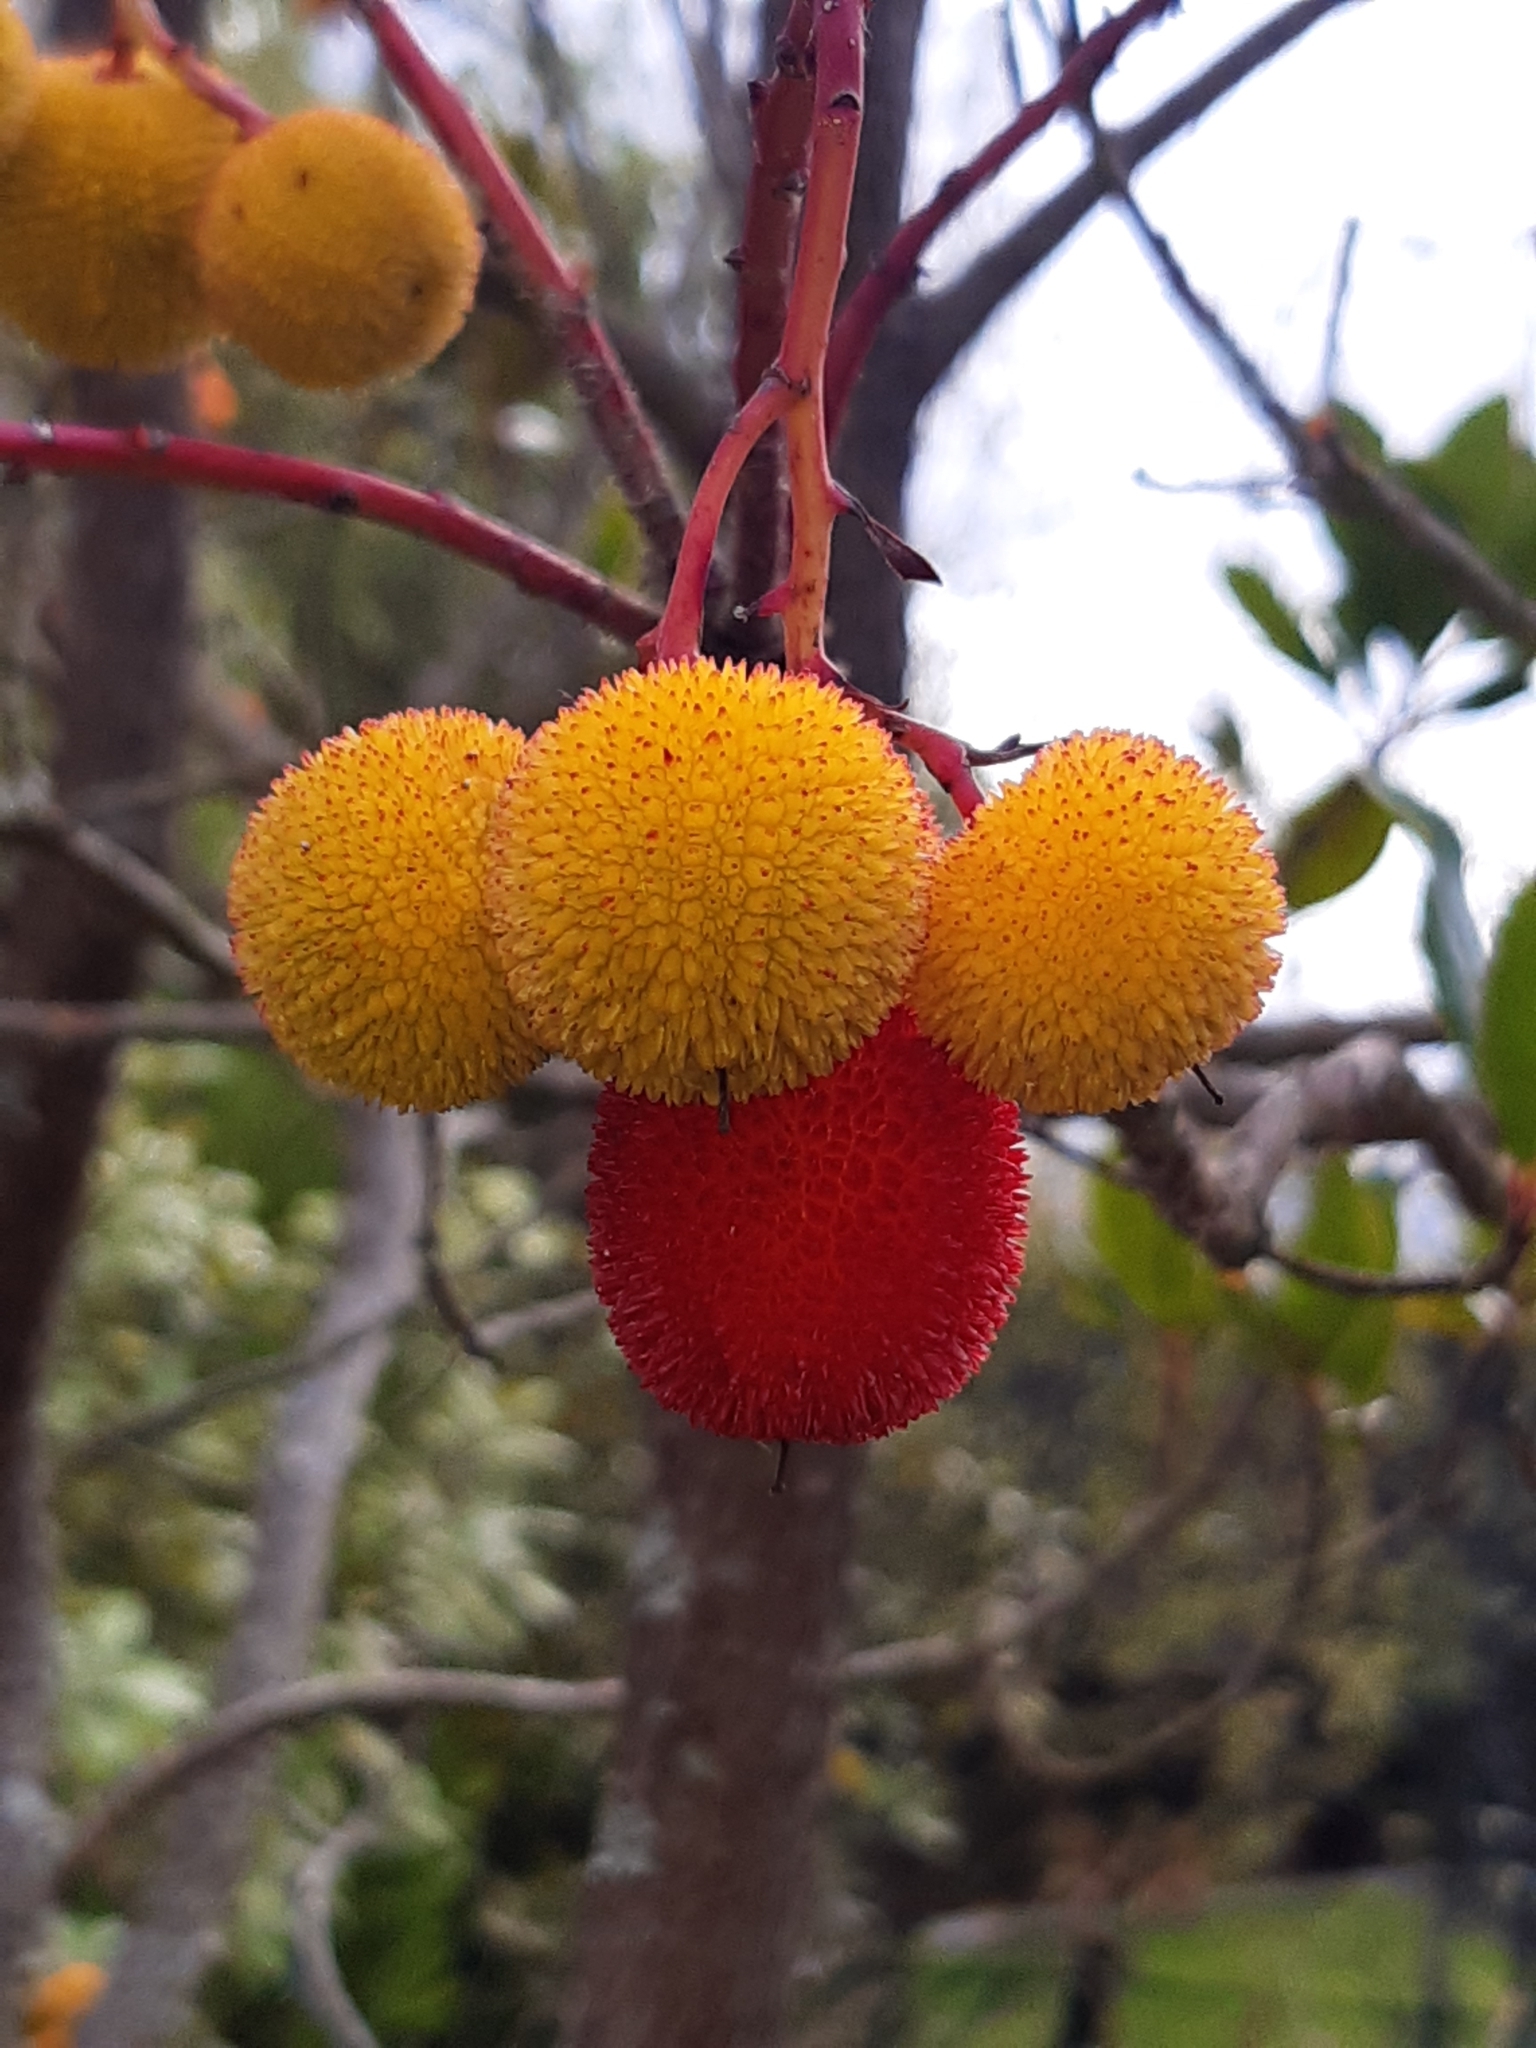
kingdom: Plantae
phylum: Tracheophyta
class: Magnoliopsida
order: Ericales
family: Ericaceae
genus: Arbutus
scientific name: Arbutus unedo
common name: Strawberry-tree
